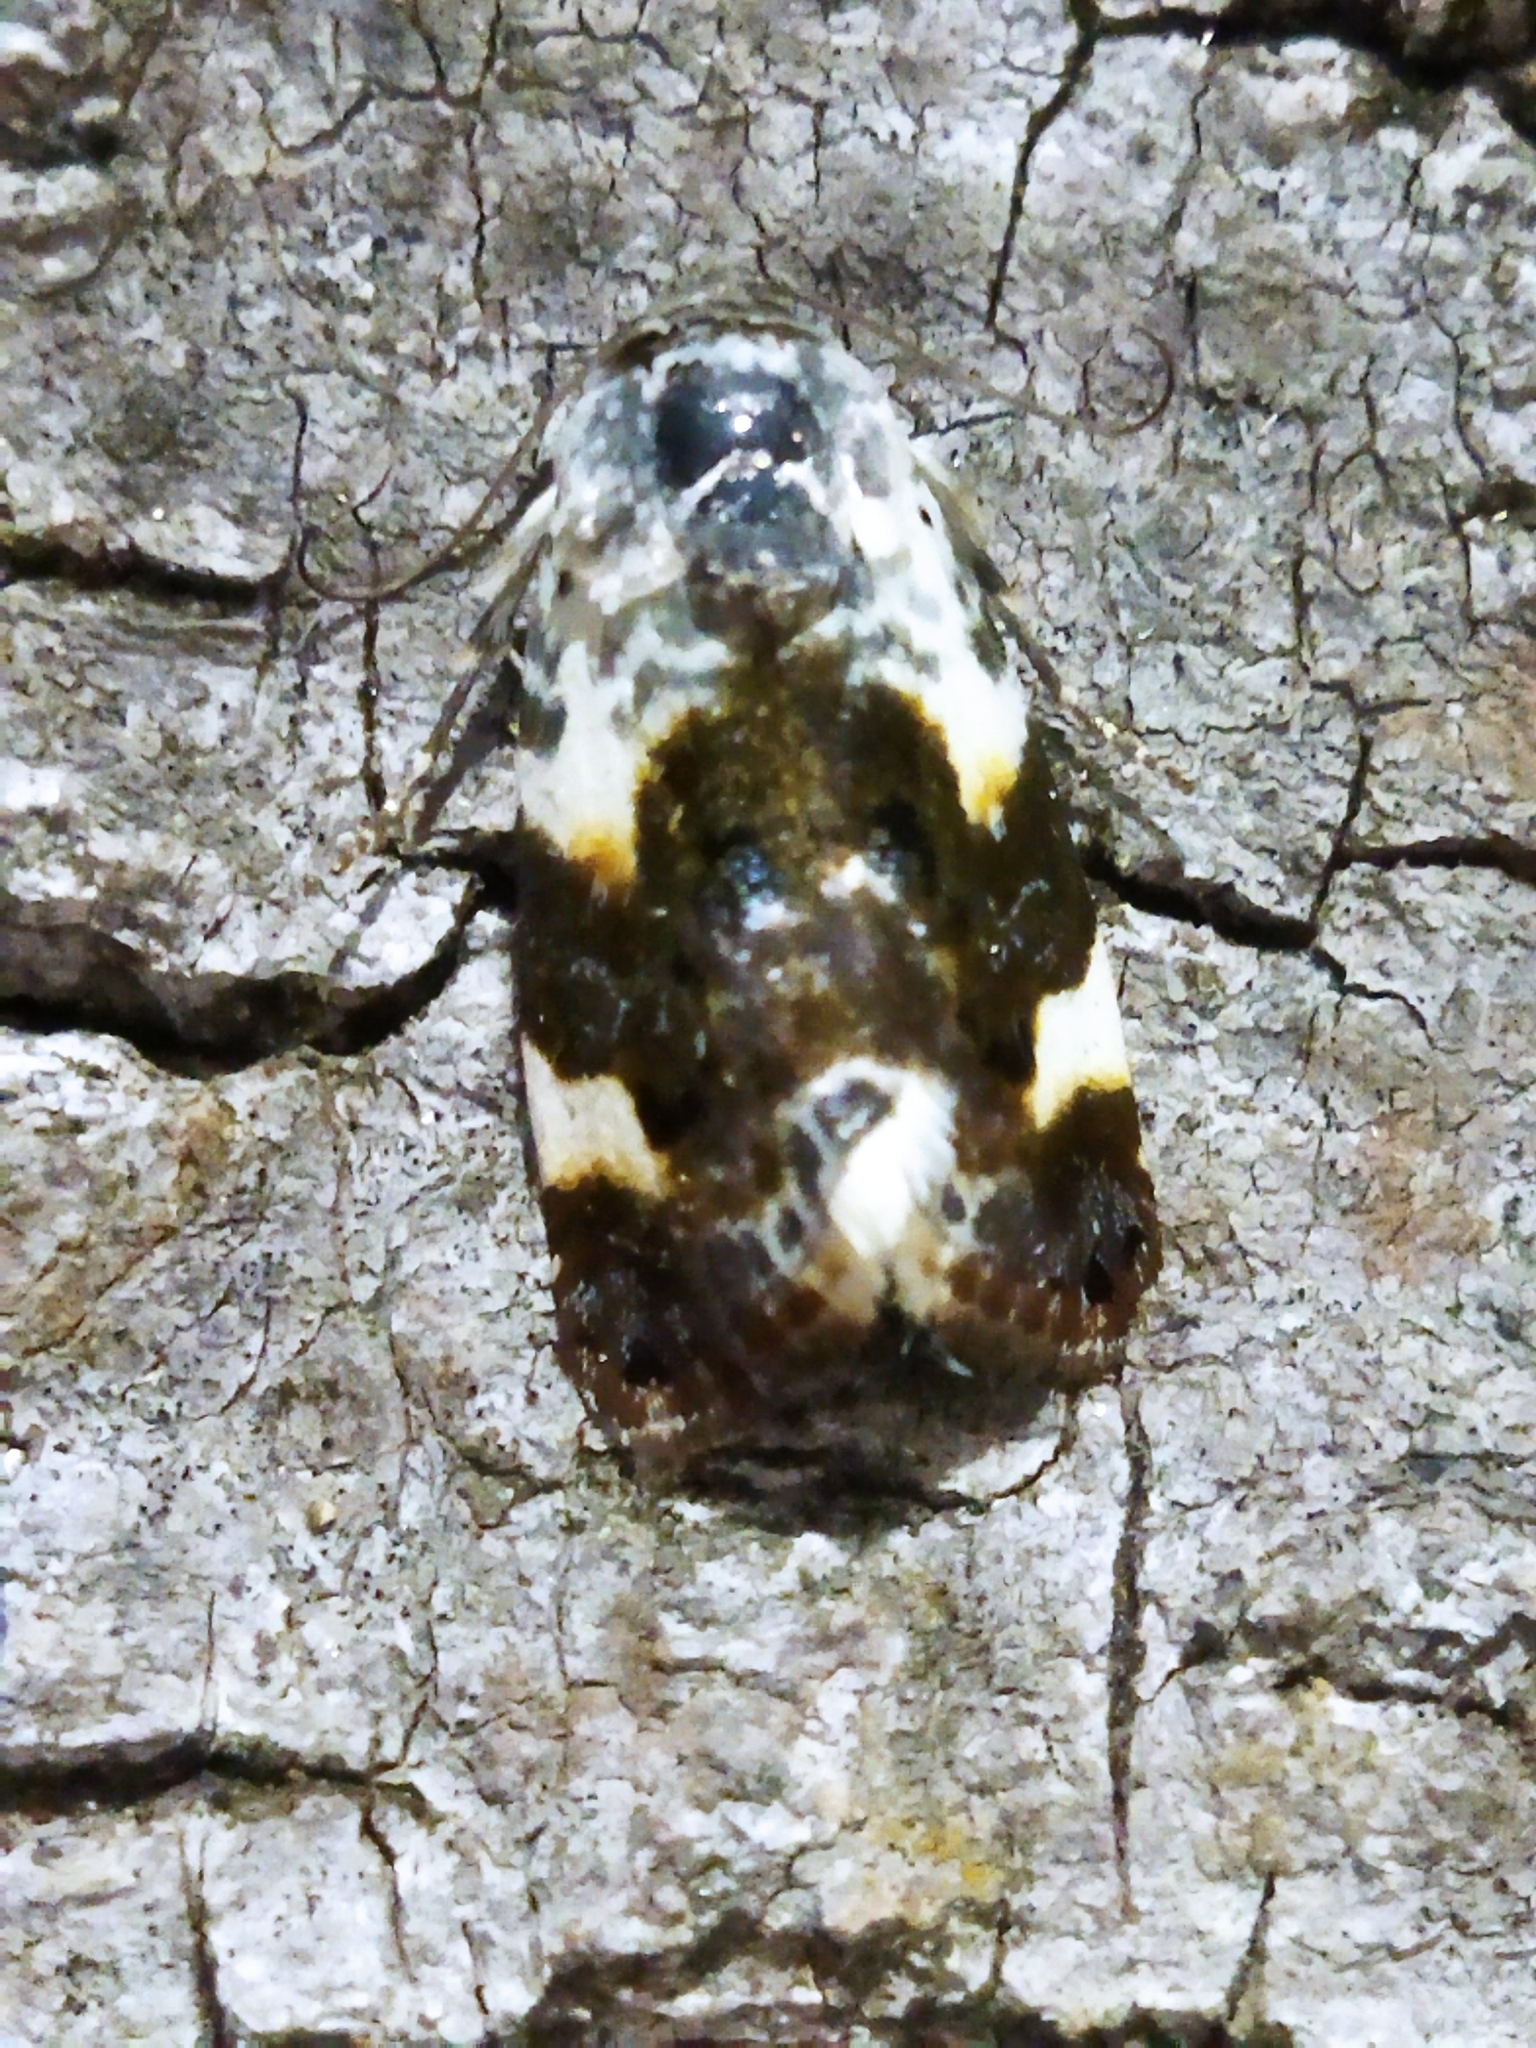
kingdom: Animalia
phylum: Arthropoda
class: Insecta
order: Lepidoptera
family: Noctuidae
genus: Acontia
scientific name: Acontia lucida
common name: Pale shoulder
